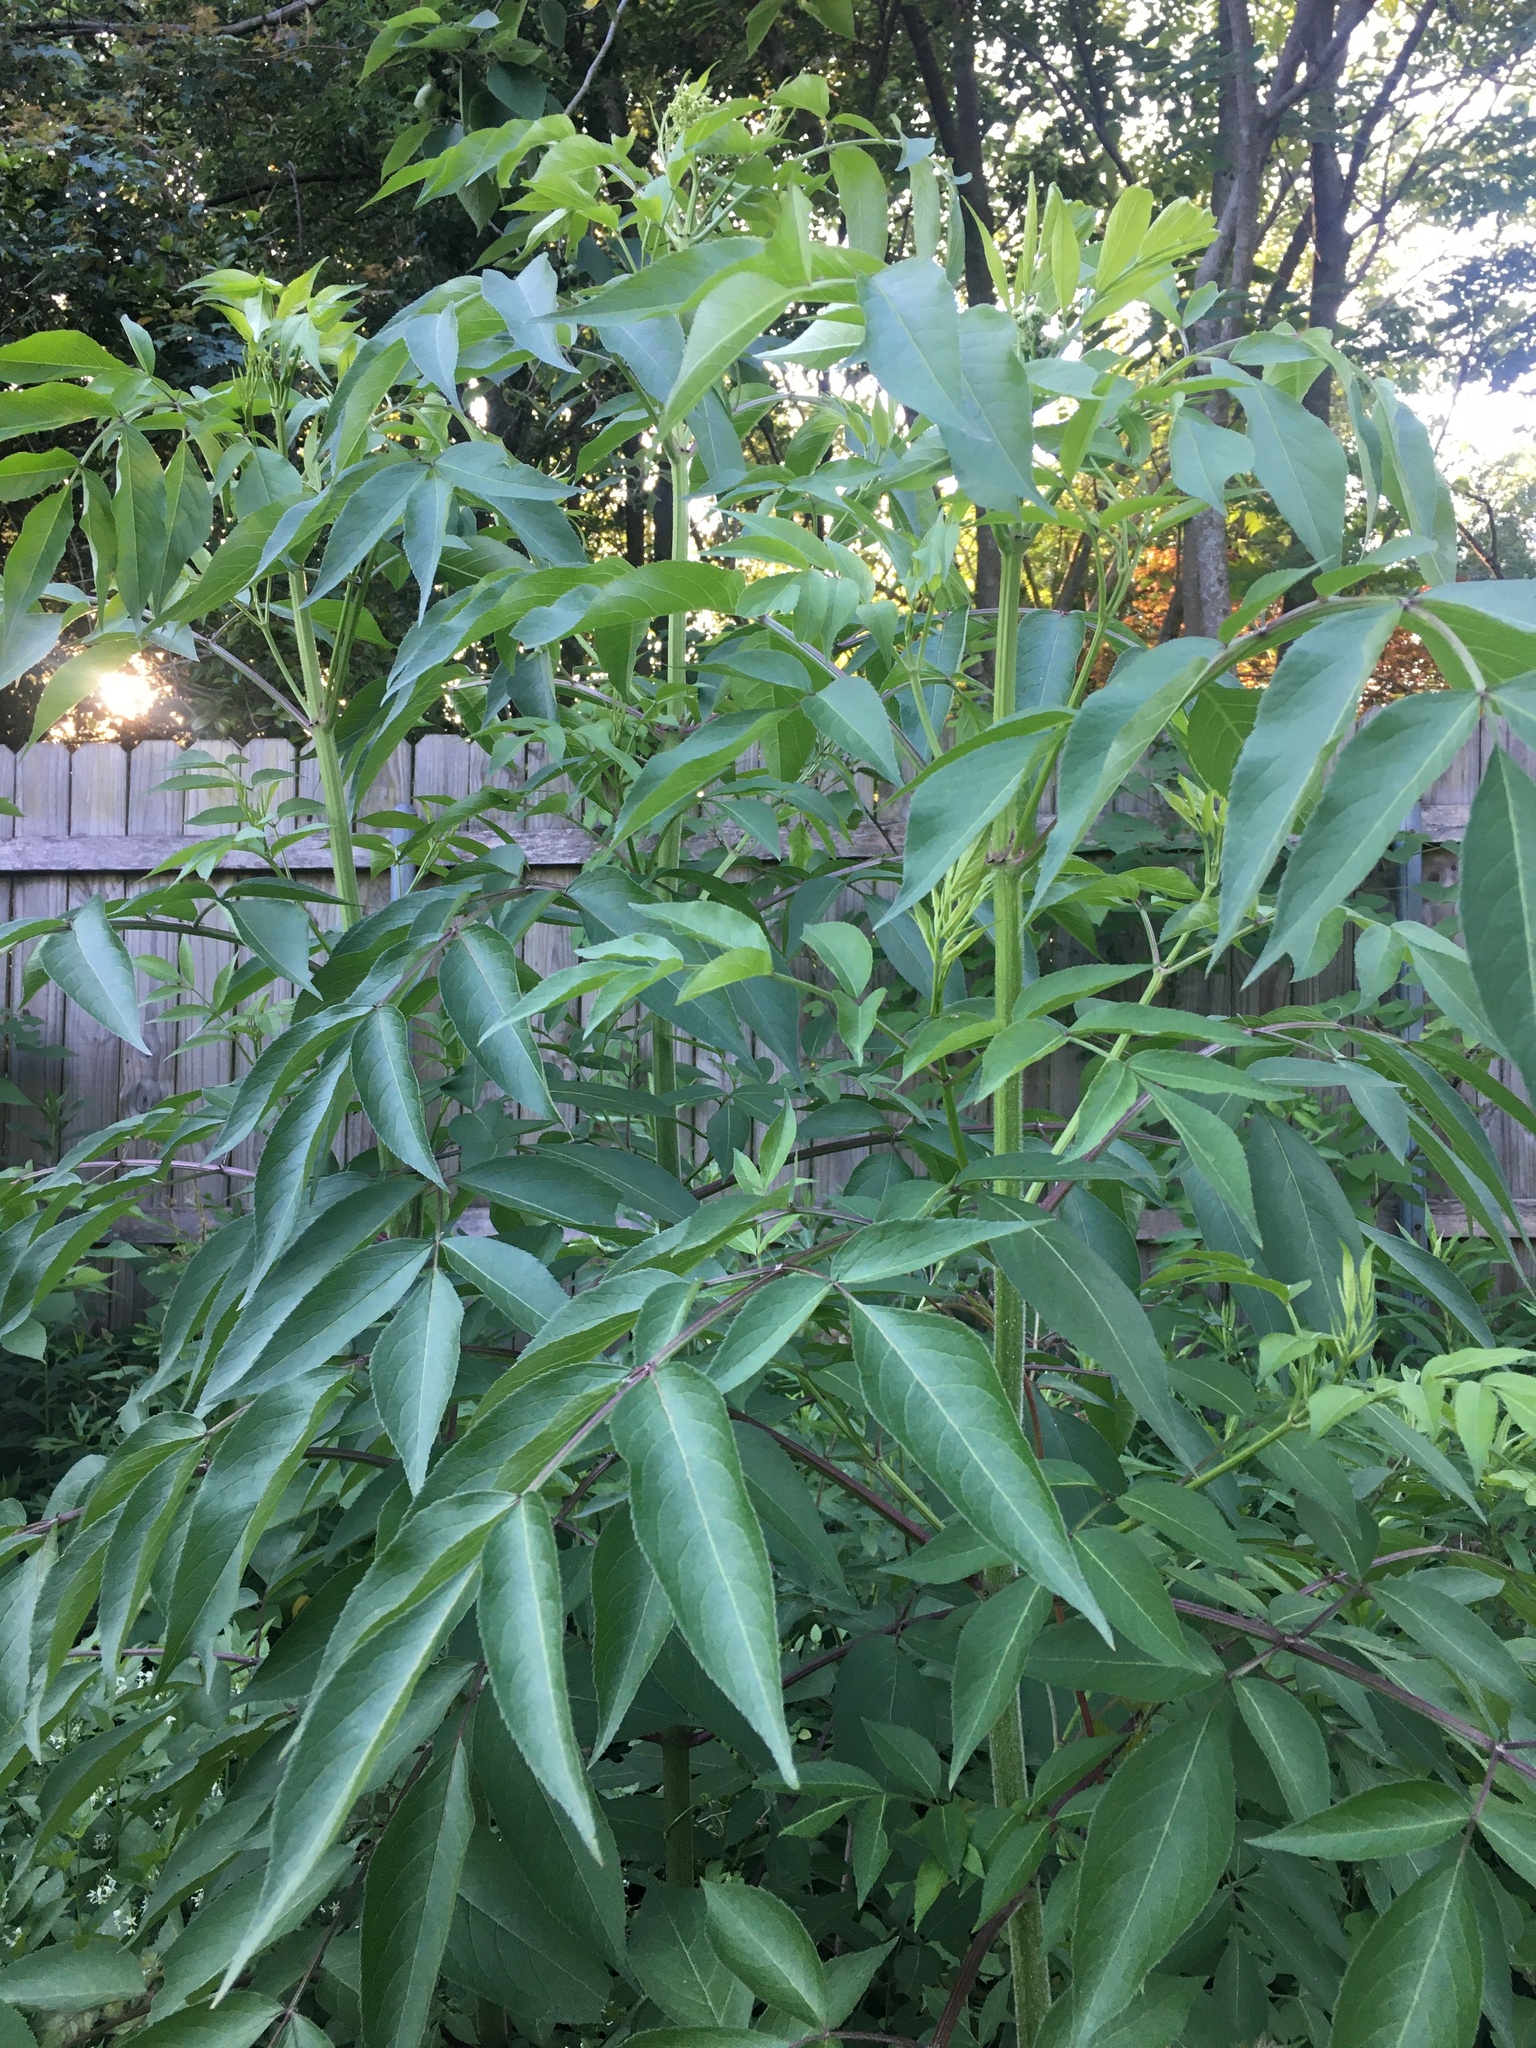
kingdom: Plantae
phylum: Tracheophyta
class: Magnoliopsida
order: Dipsacales
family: Viburnaceae
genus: Sambucus
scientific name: Sambucus canadensis
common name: American elder
